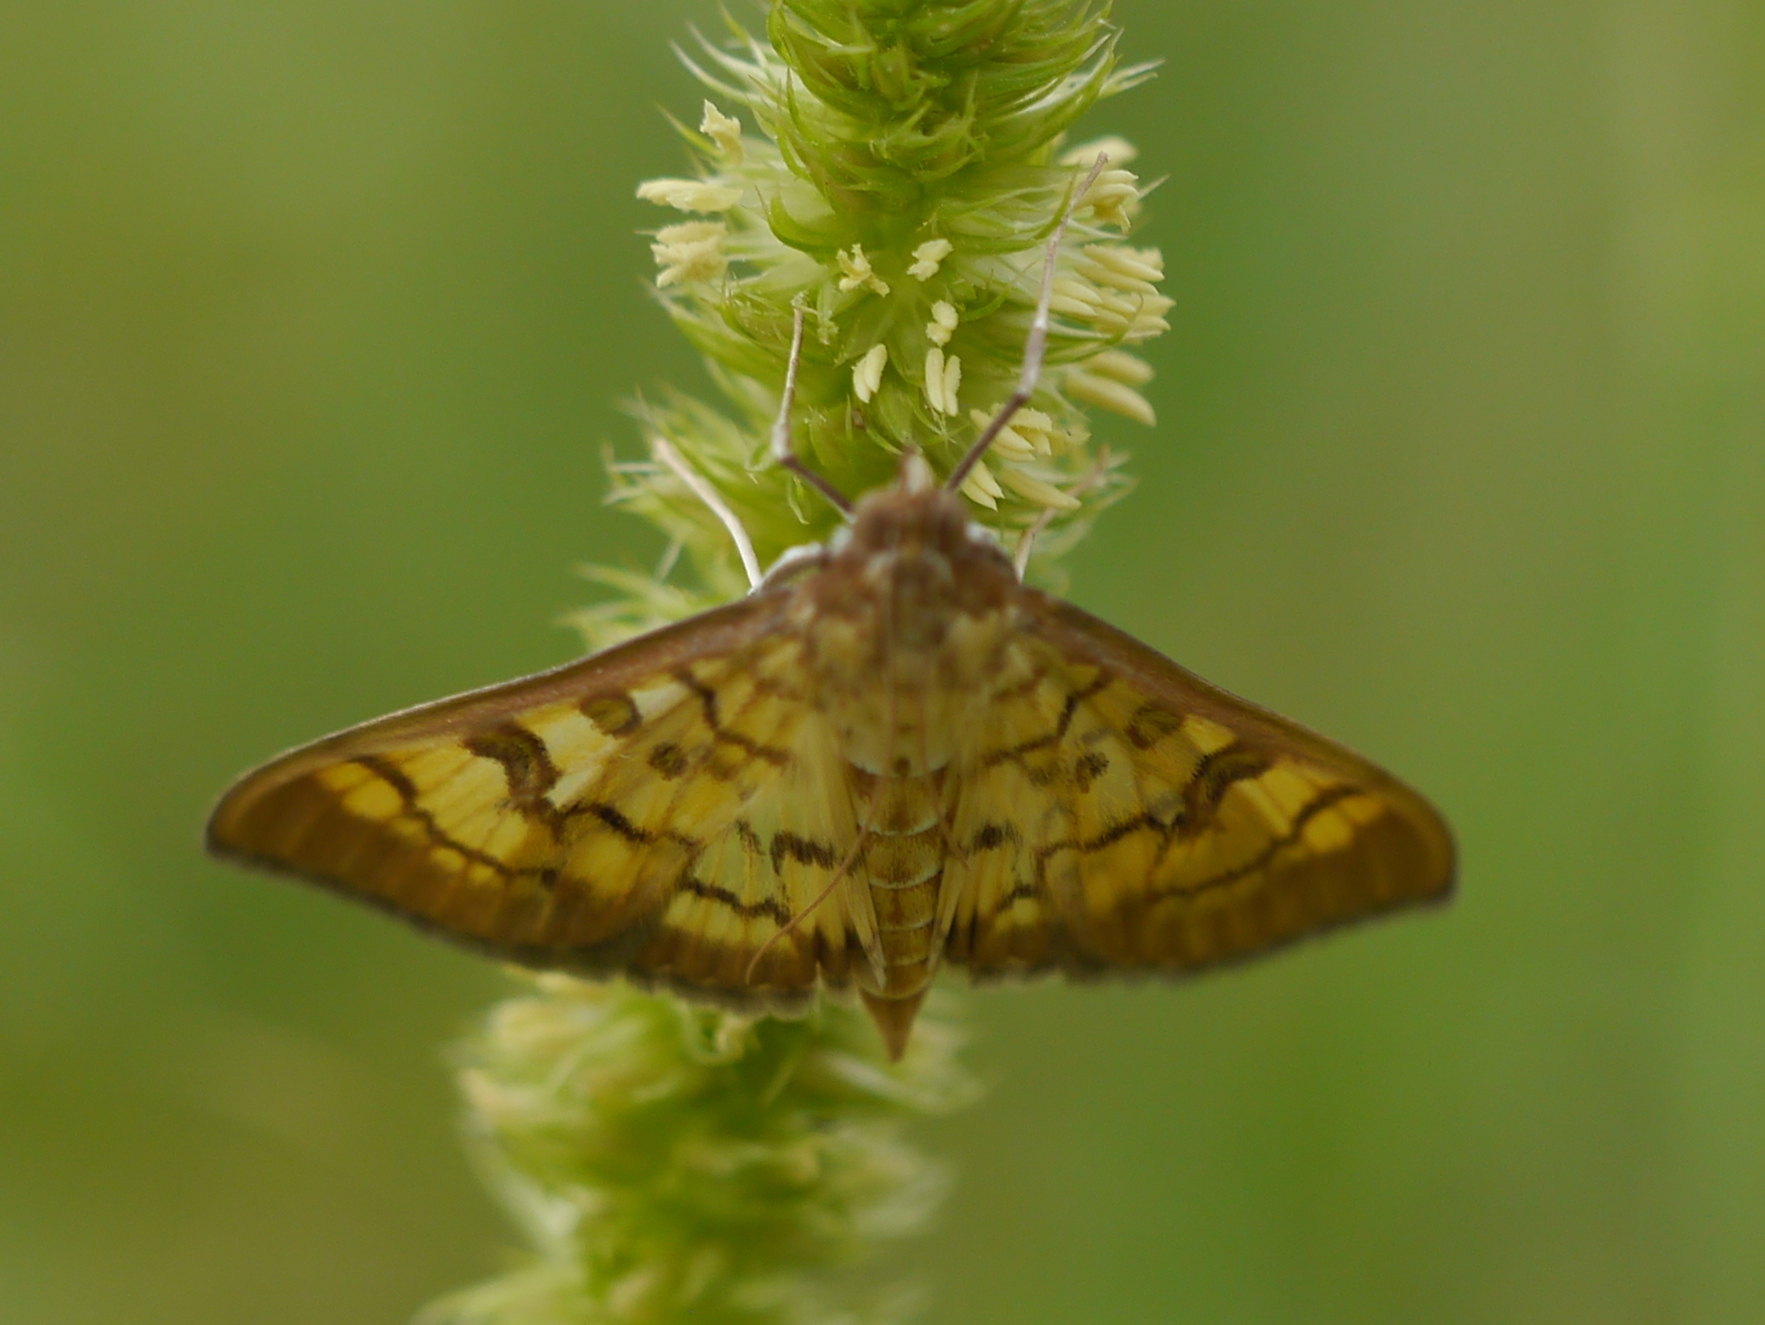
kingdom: Animalia
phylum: Arthropoda
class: Insecta
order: Lepidoptera
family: Crambidae
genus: Mimorista
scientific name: Mimorista subcostalis
